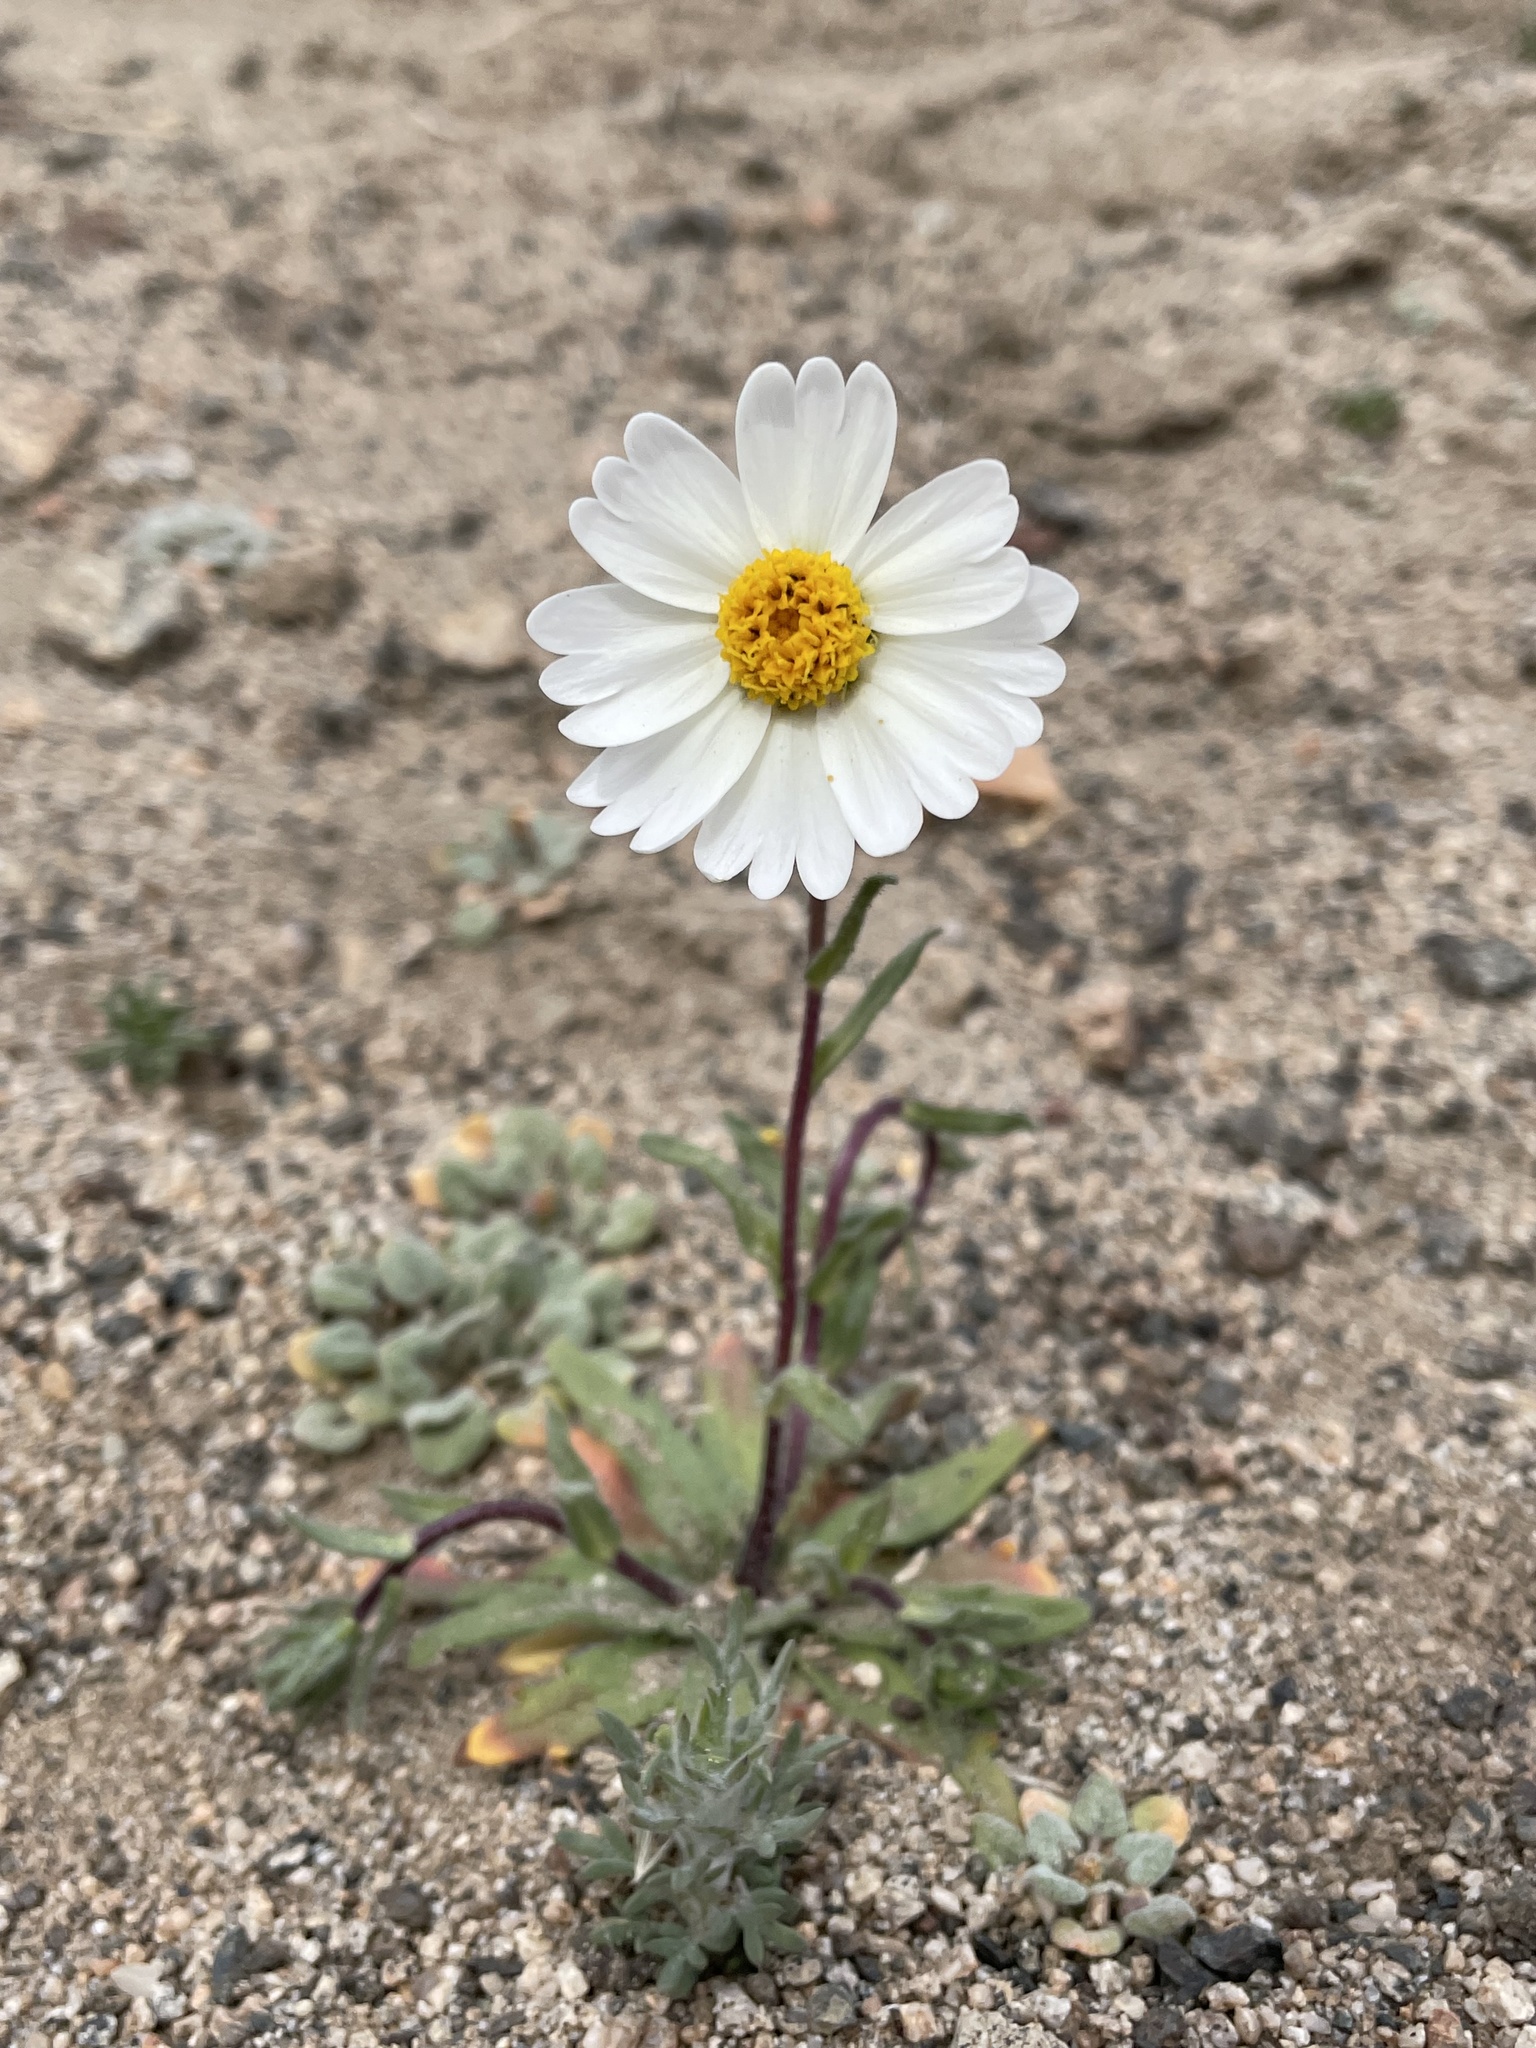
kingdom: Plantae
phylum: Tracheophyta
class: Magnoliopsida
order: Asterales
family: Asteraceae
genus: Layia
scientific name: Layia glandulosa
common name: White layia
